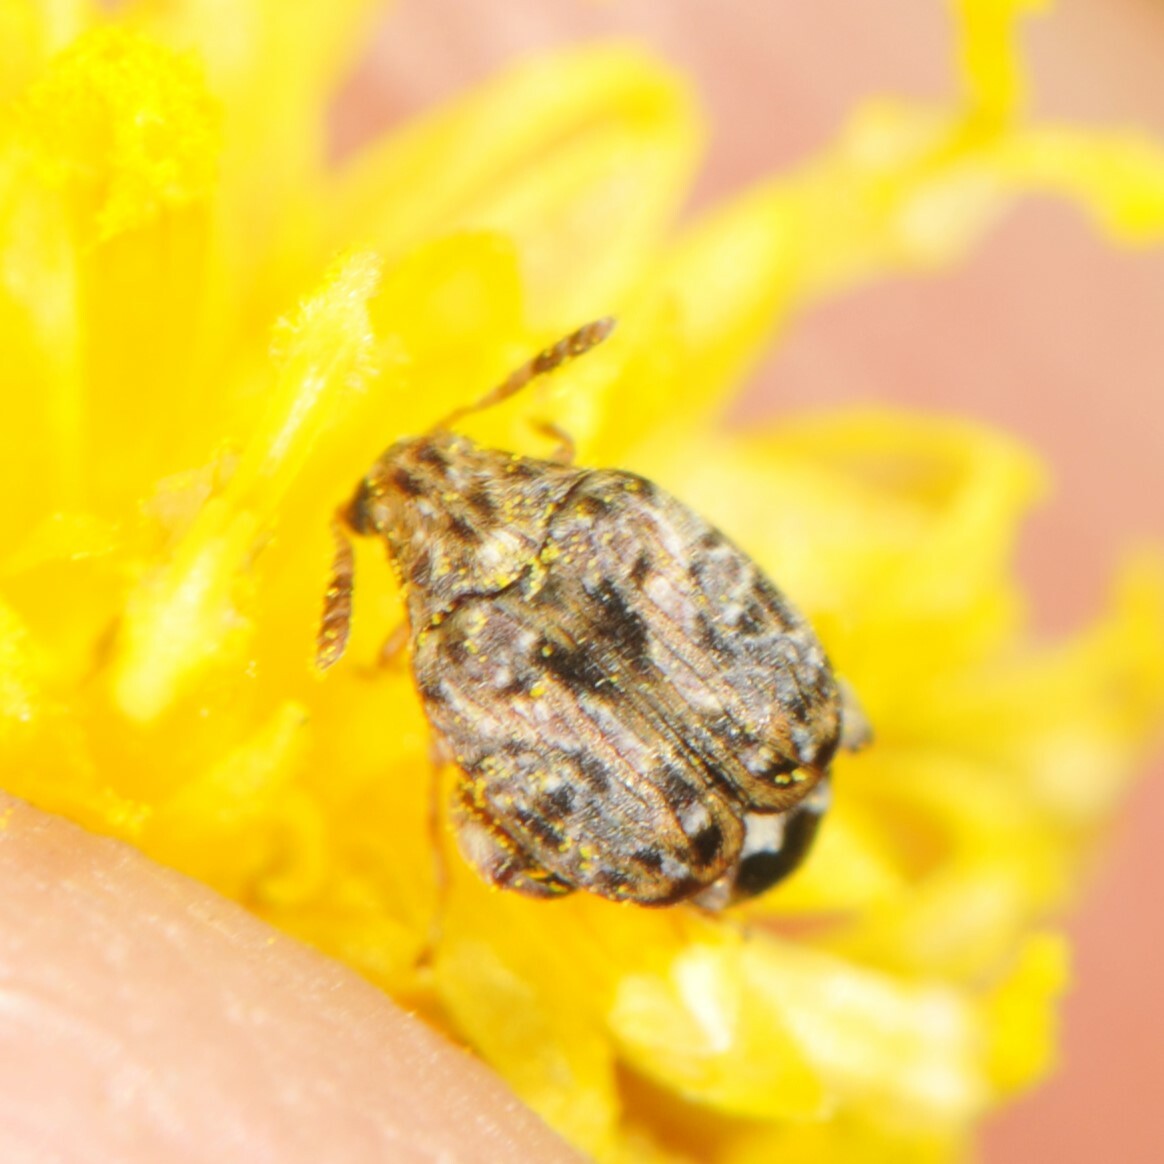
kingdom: Animalia
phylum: Arthropoda
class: Insecta
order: Coleoptera
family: Chrysomelidae
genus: Gibbobruchus
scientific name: Gibbobruchus mimus
